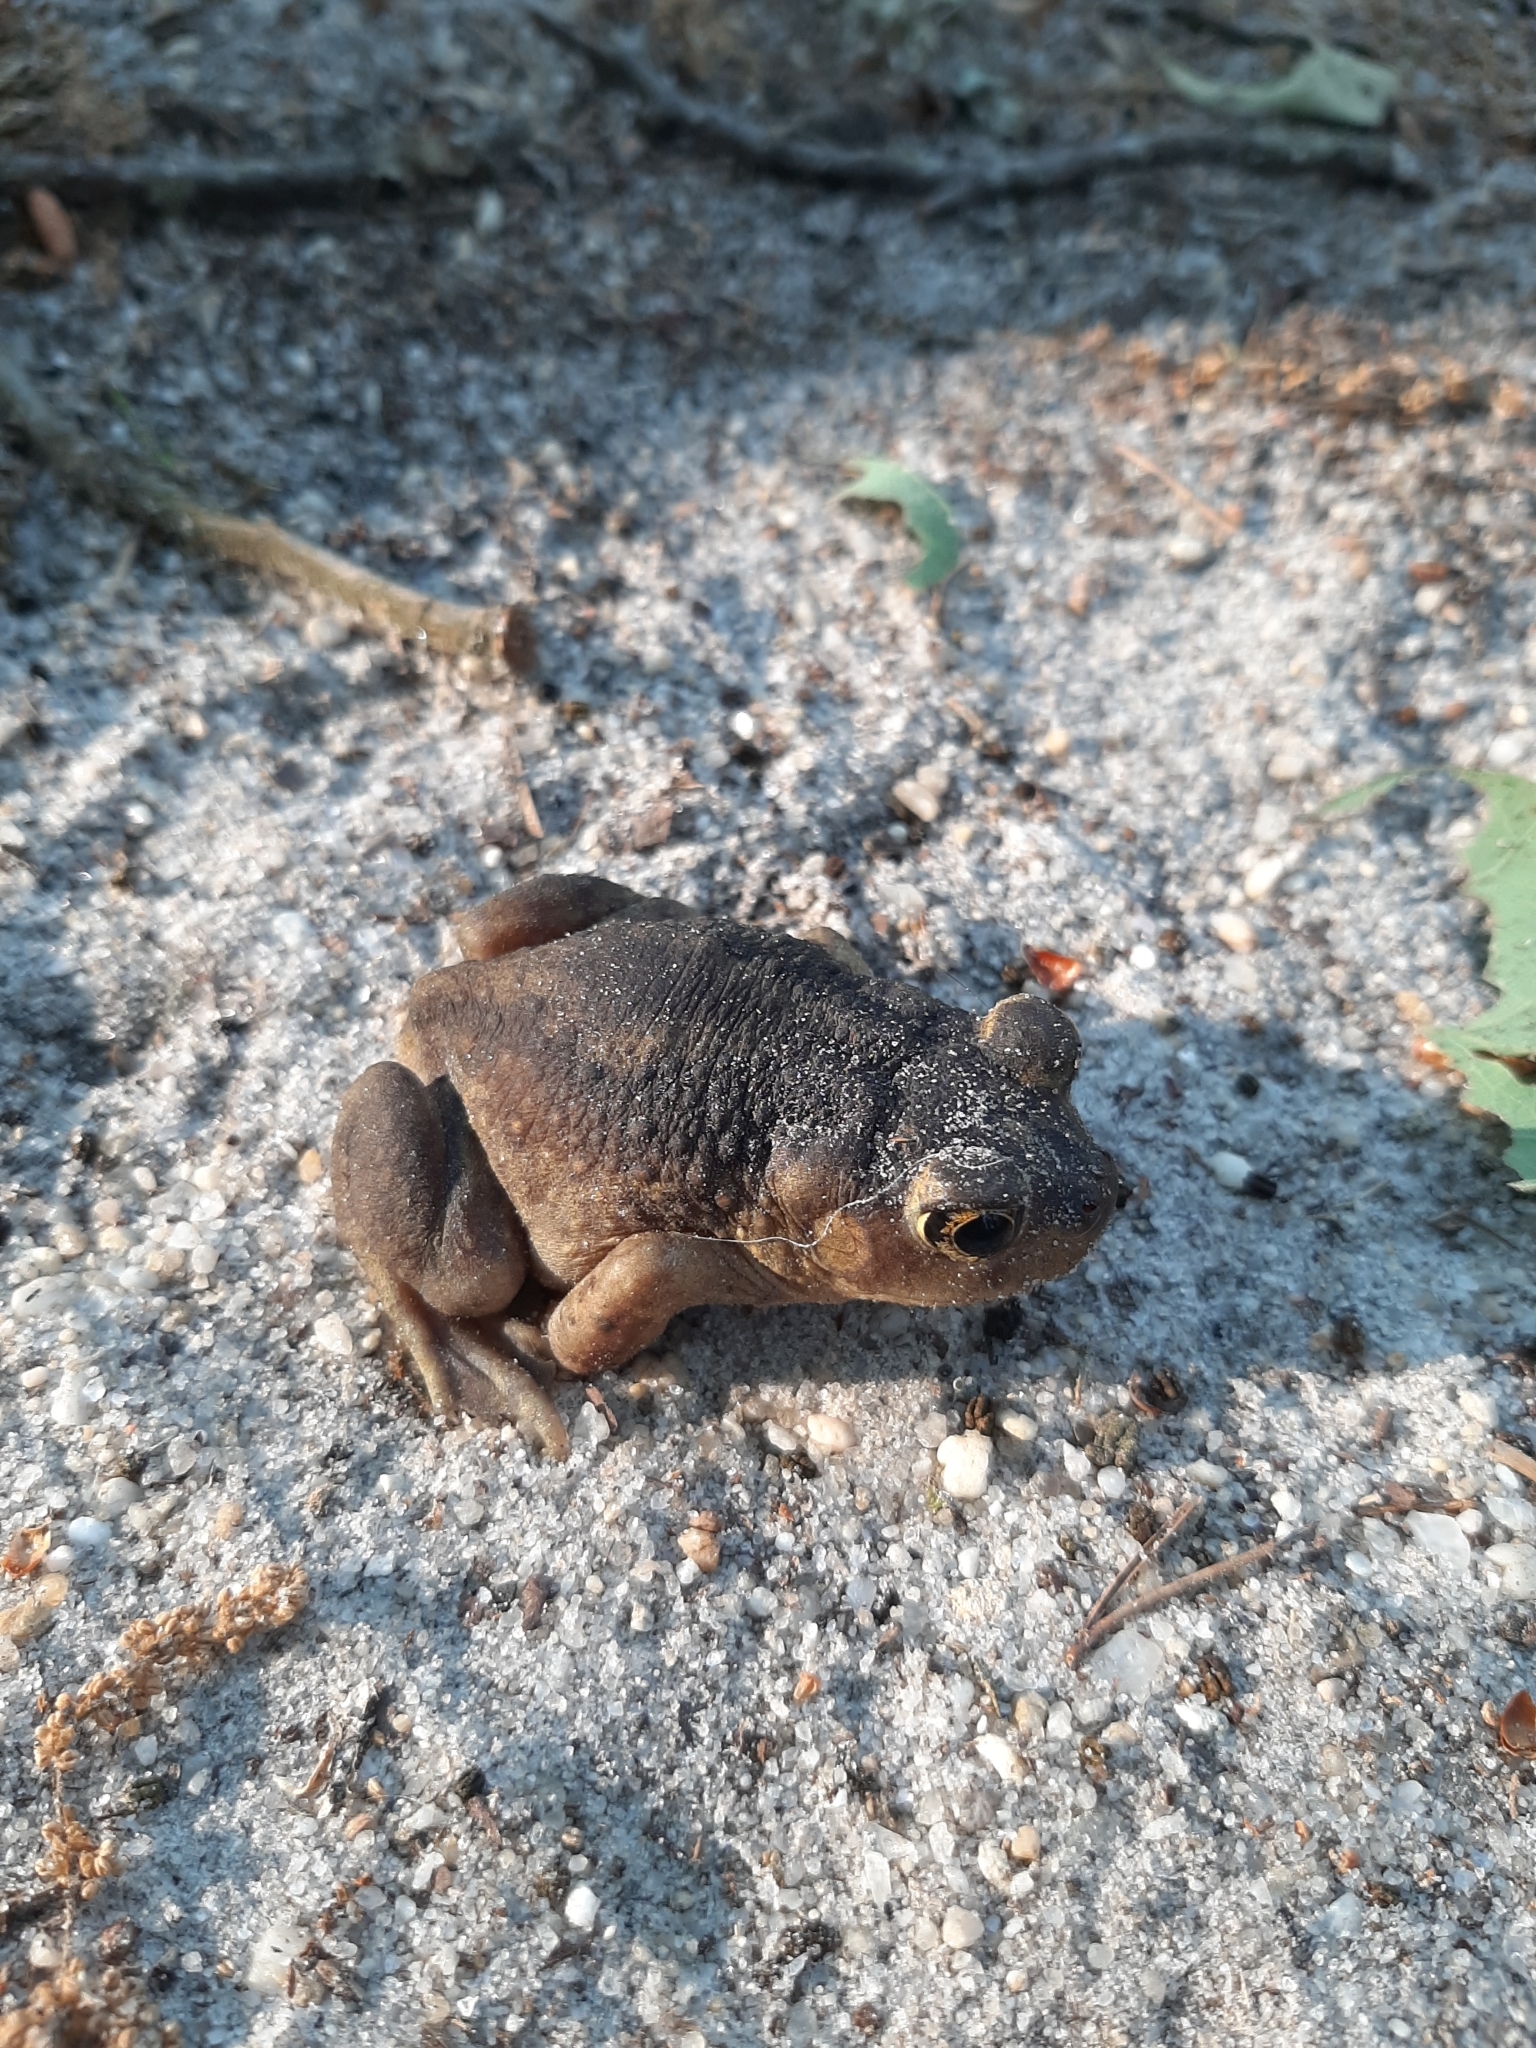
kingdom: Animalia
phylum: Chordata
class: Amphibia
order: Anura
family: Scaphiopodidae
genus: Scaphiopus
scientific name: Scaphiopus holbrookii
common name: Eastern spadefoot toad
